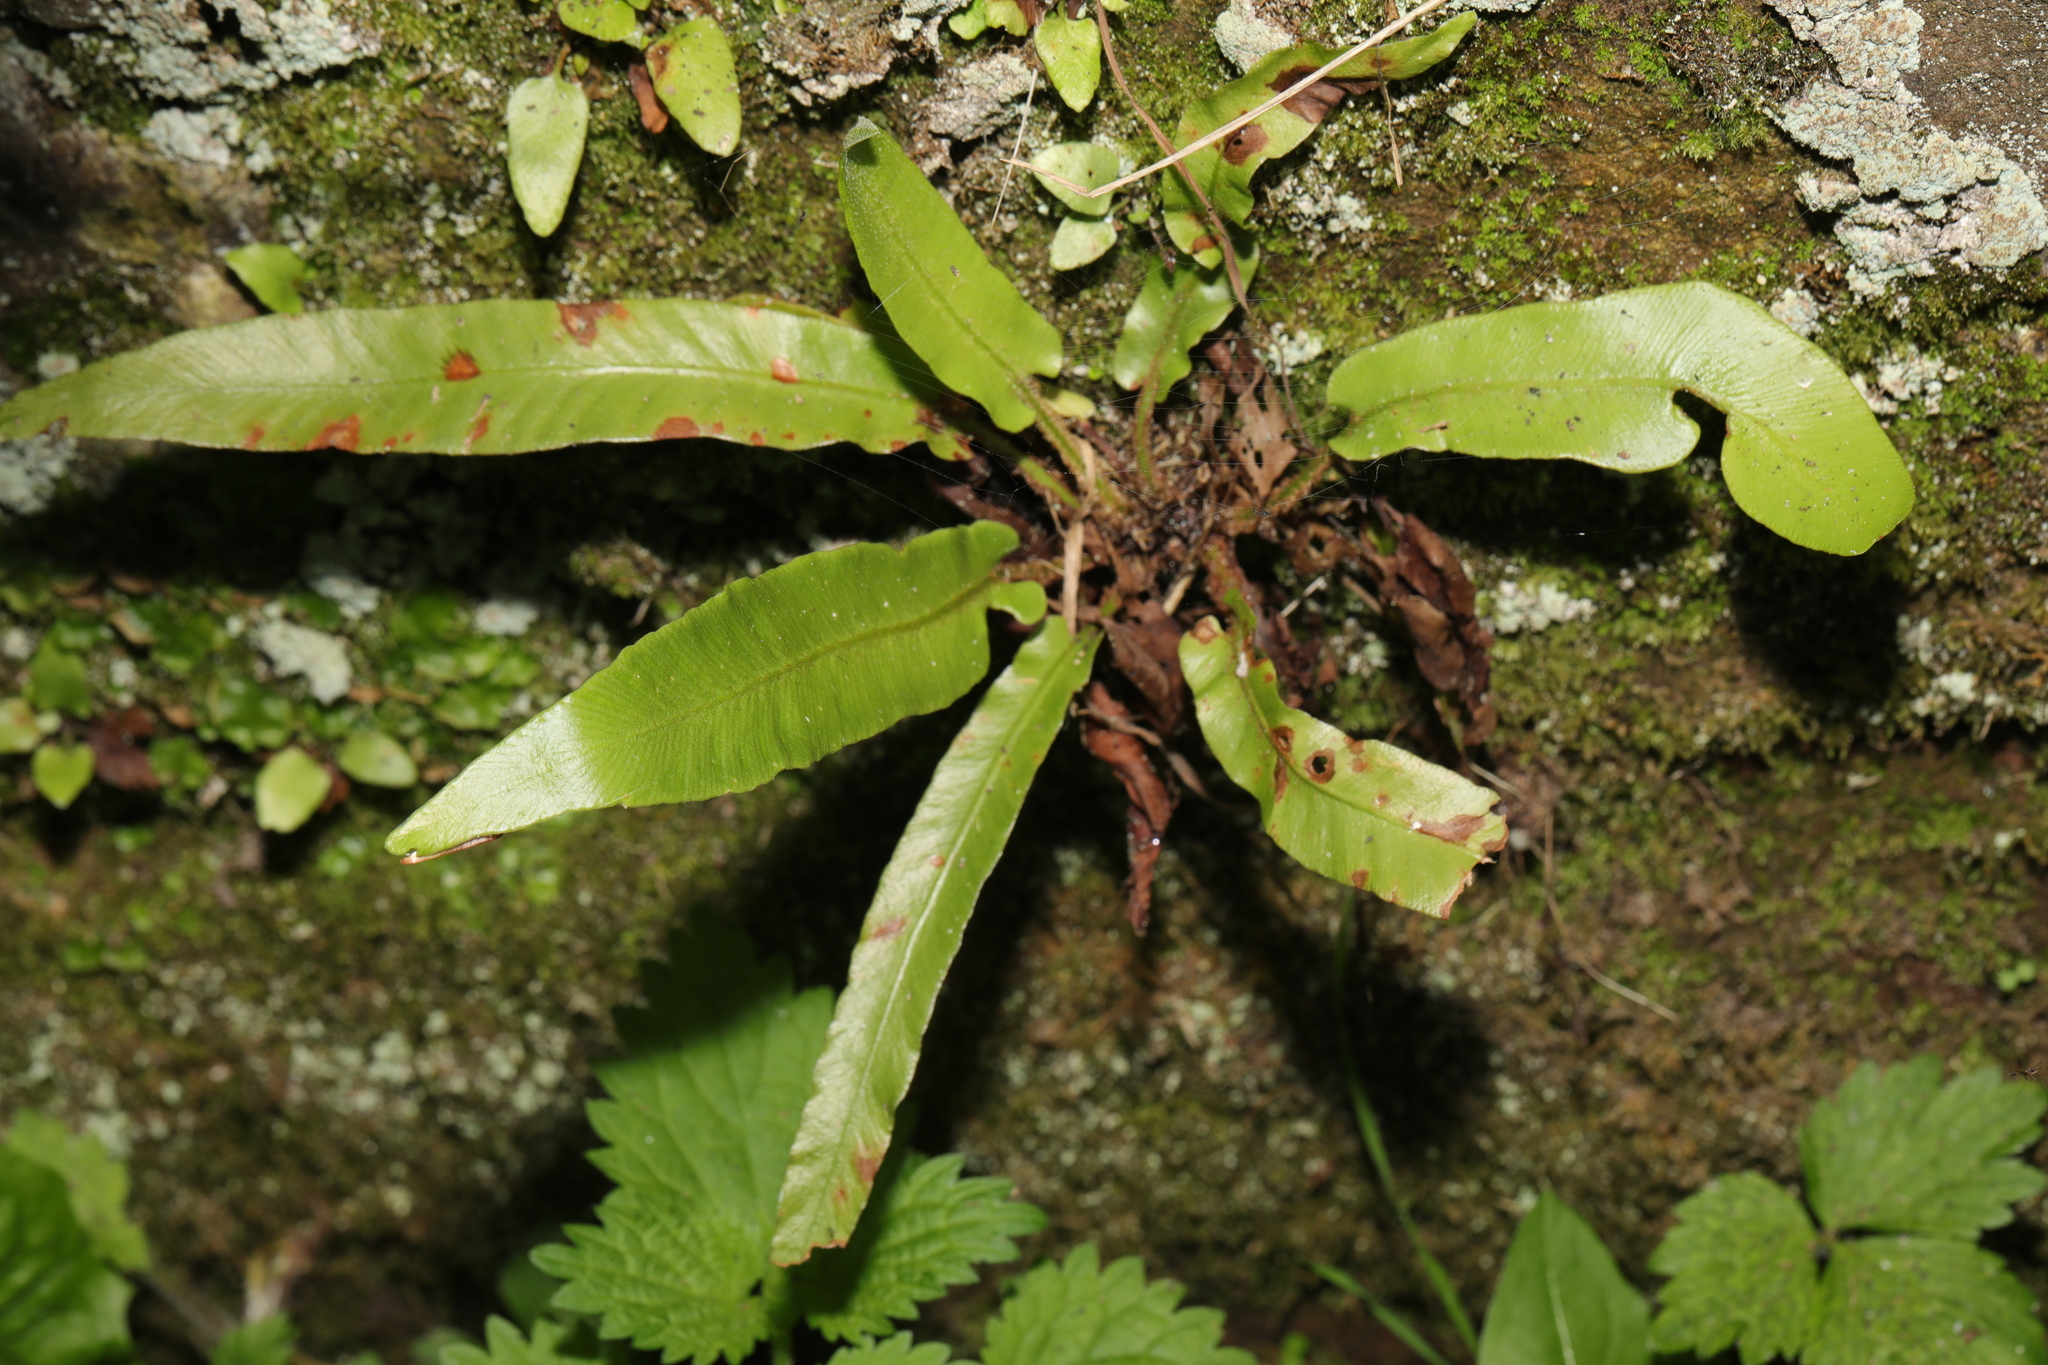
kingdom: Plantae
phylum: Tracheophyta
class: Polypodiopsida
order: Polypodiales
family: Aspleniaceae
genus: Asplenium
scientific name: Asplenium scolopendrium
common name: Hart's-tongue fern
